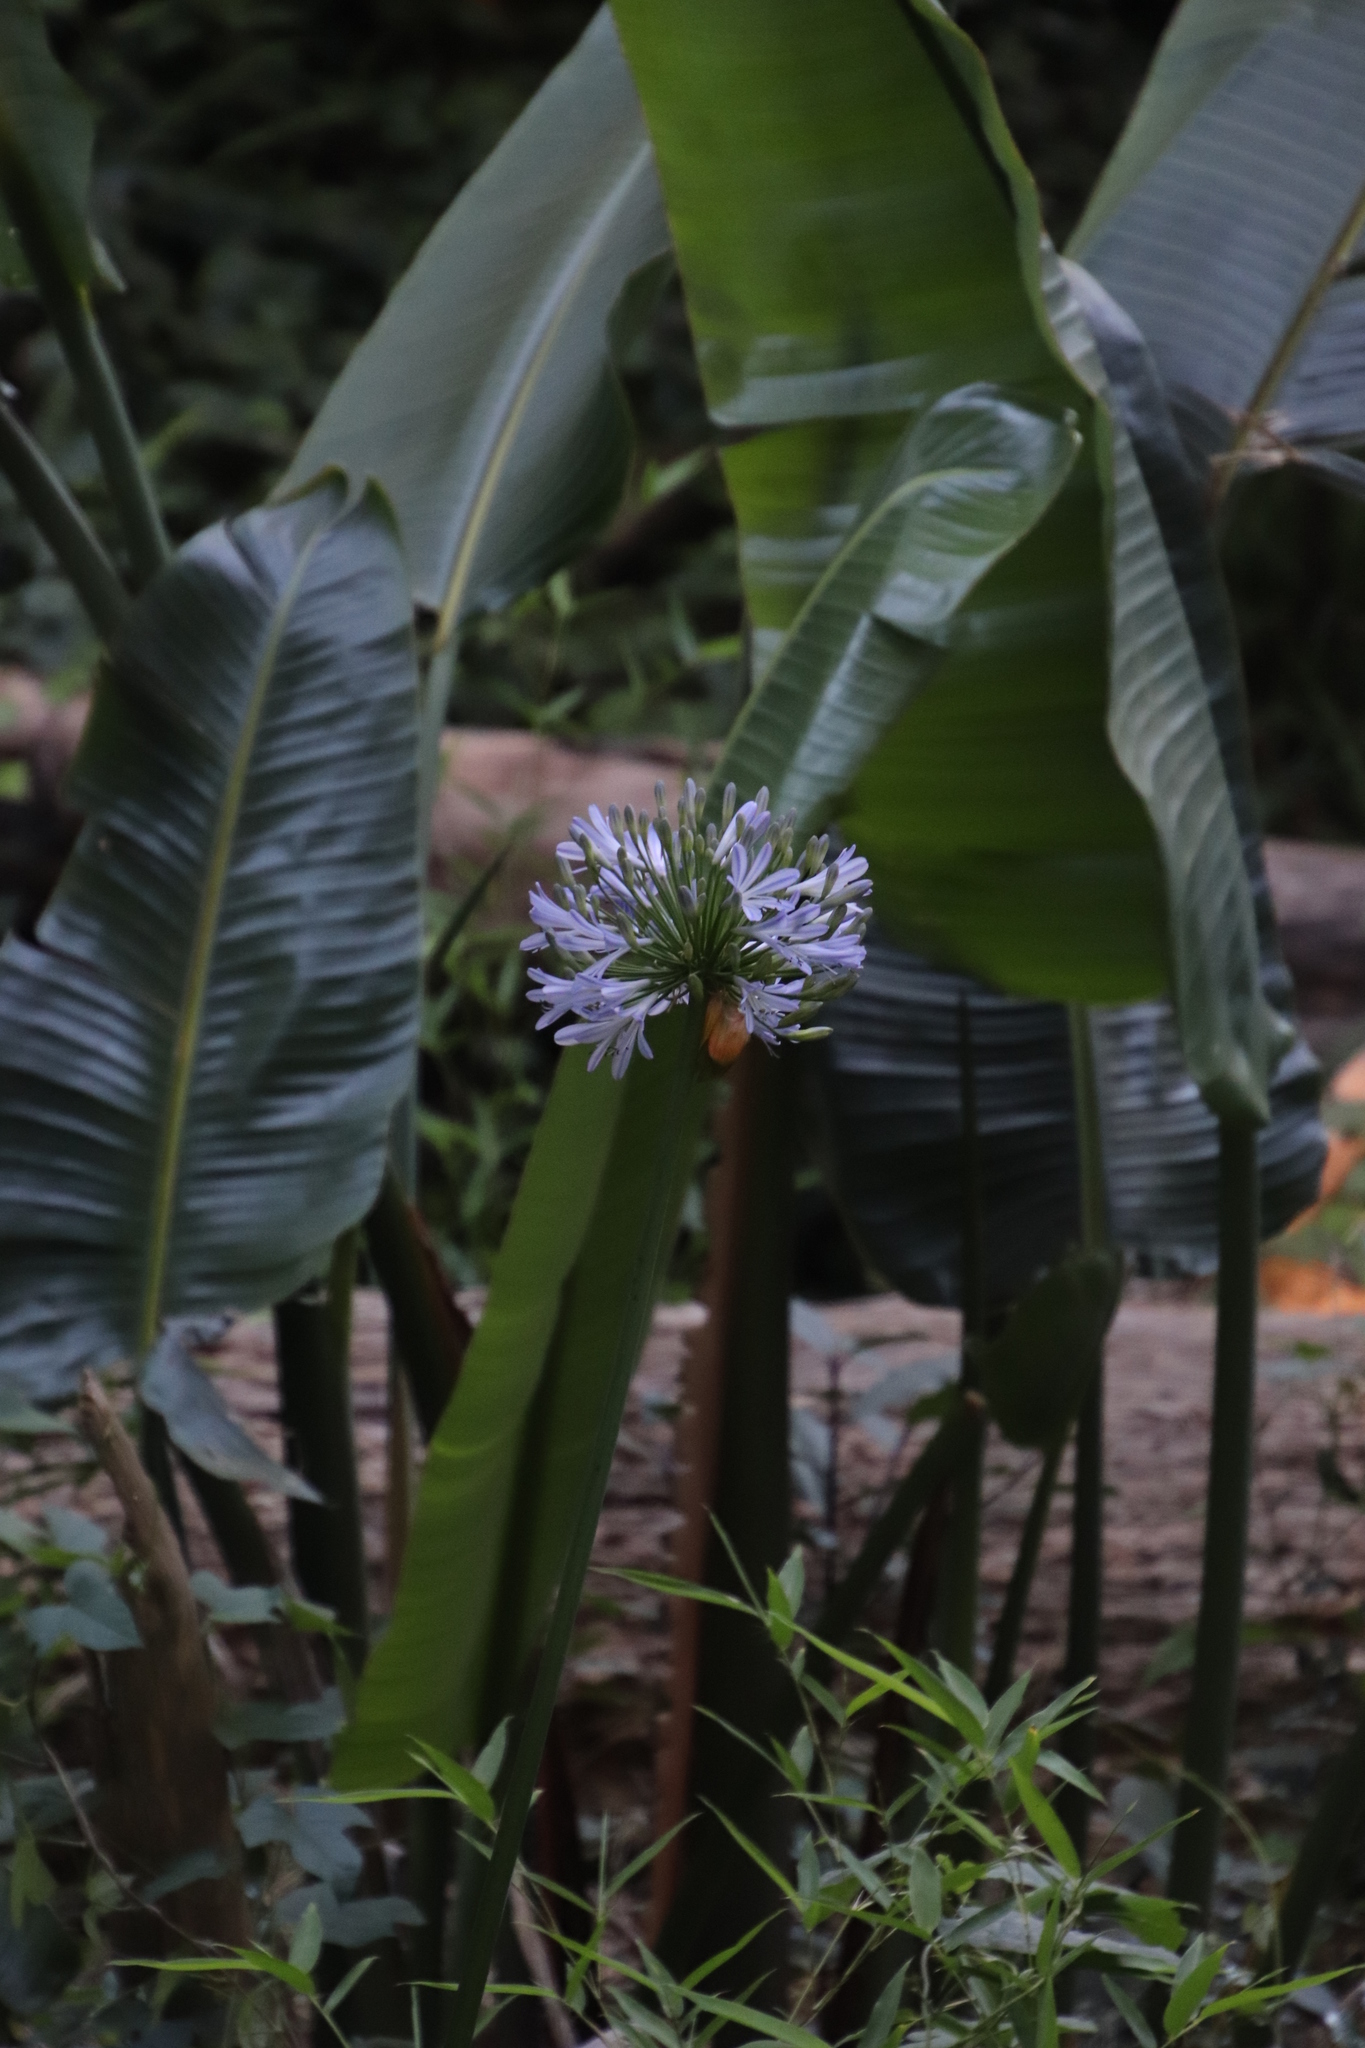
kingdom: Plantae
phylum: Tracheophyta
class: Liliopsida
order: Asparagales
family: Amaryllidaceae
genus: Agapanthus
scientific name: Agapanthus praecox
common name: African-lily
